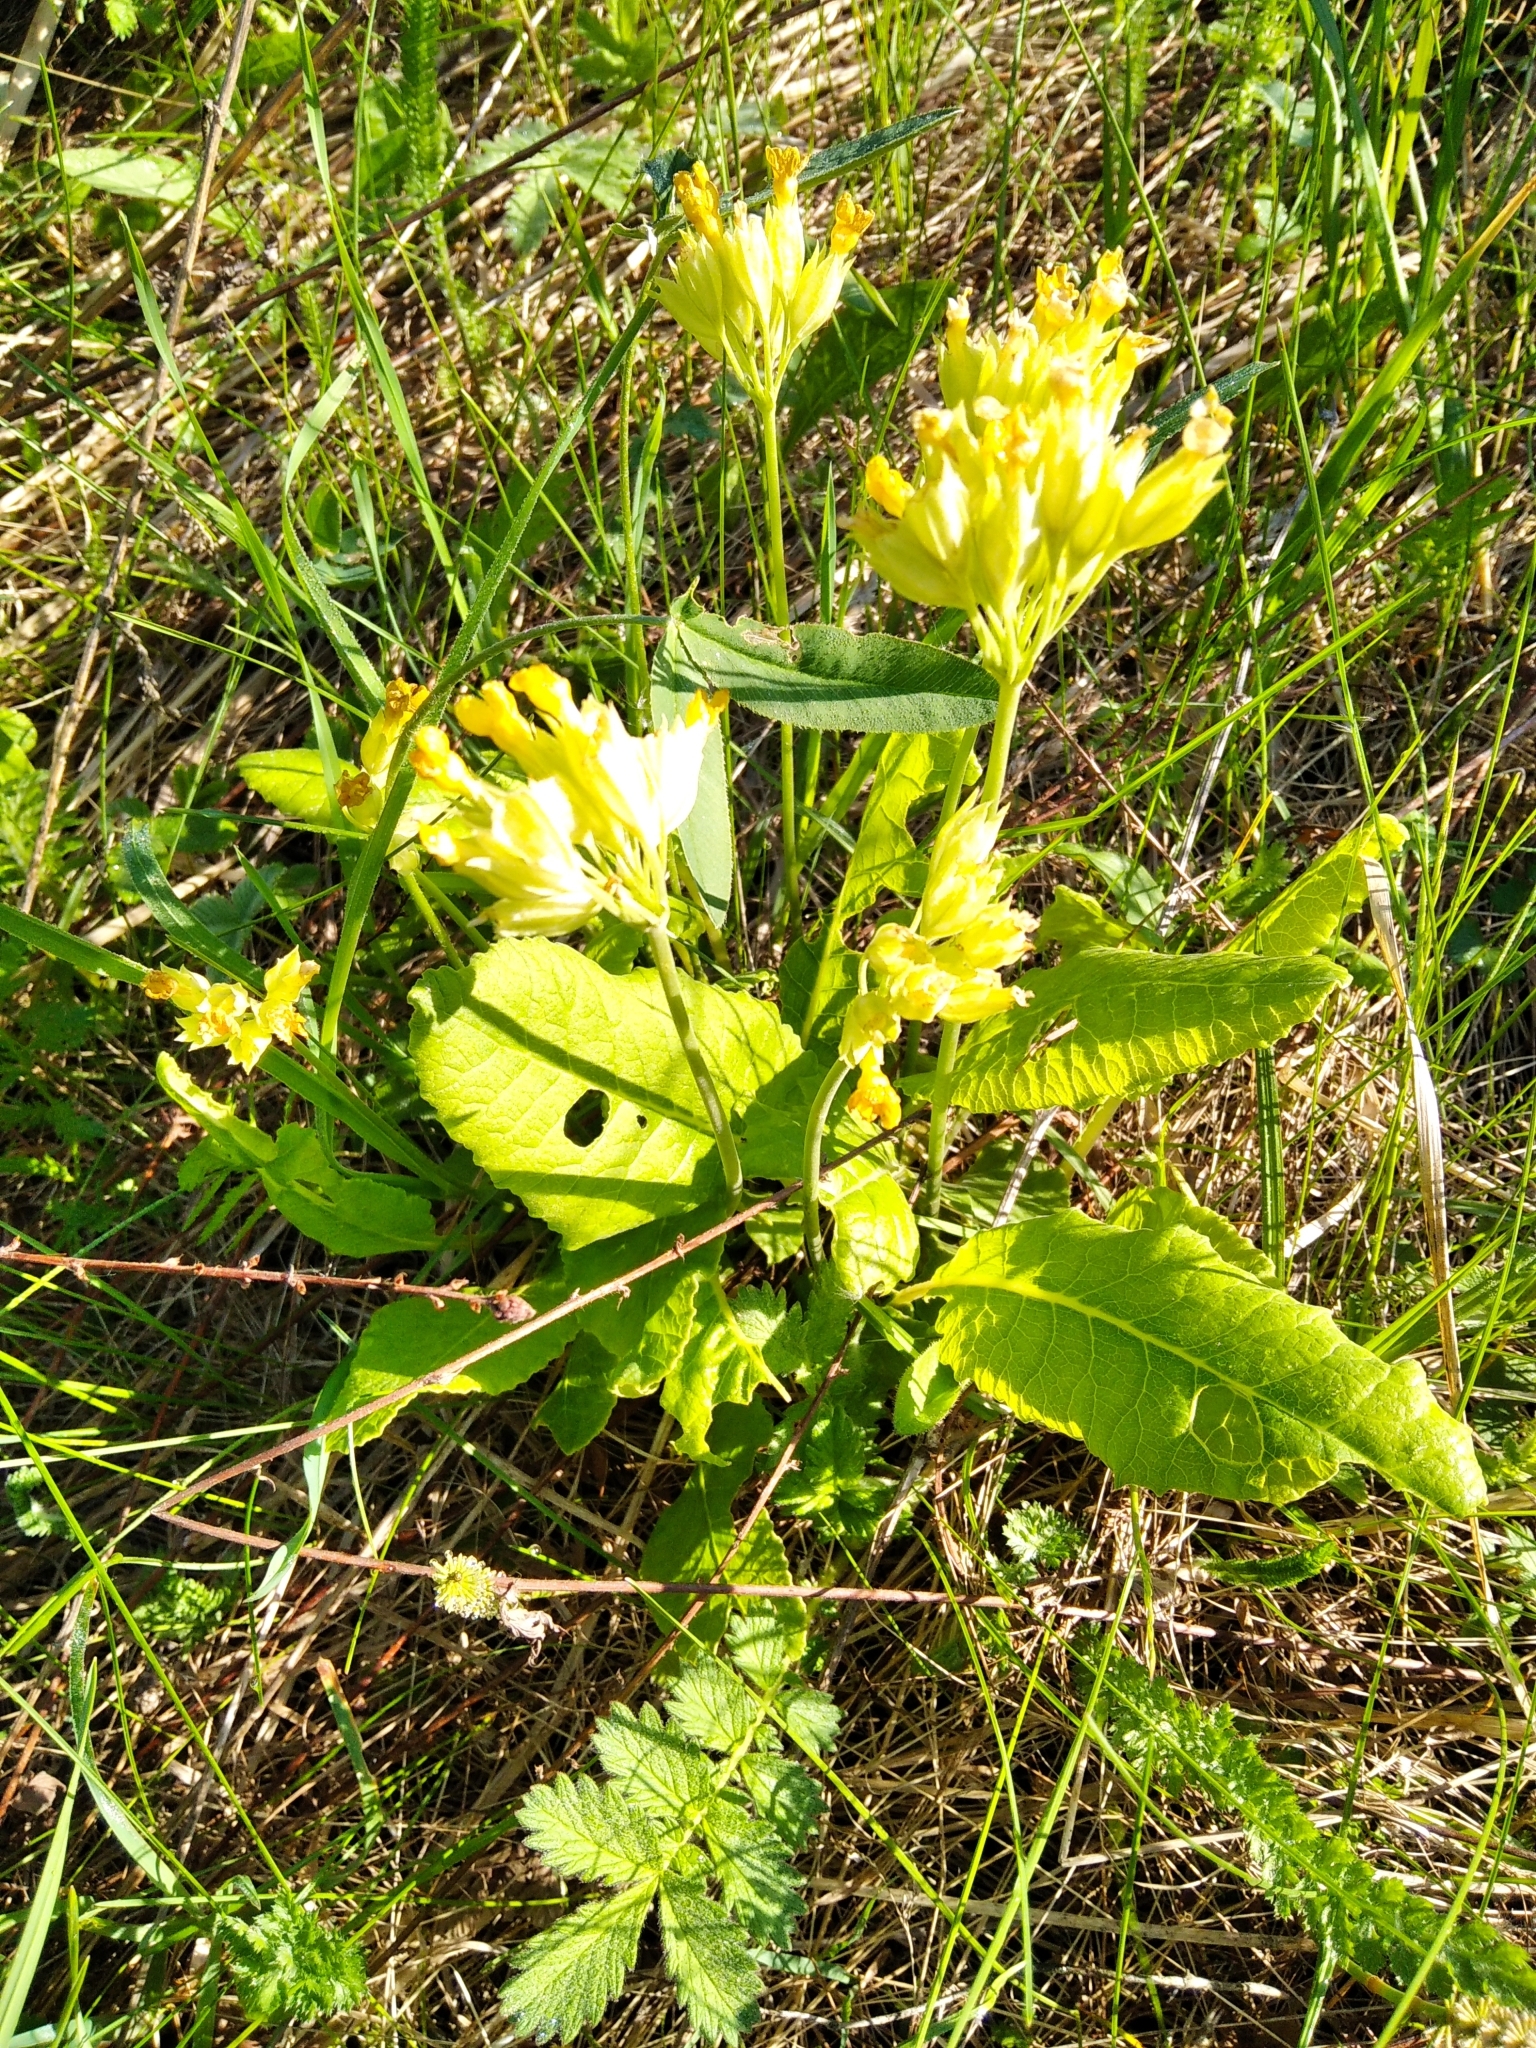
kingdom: Plantae
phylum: Tracheophyta
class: Magnoliopsida
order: Ericales
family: Primulaceae
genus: Primula
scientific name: Primula veris
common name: Cowslip
